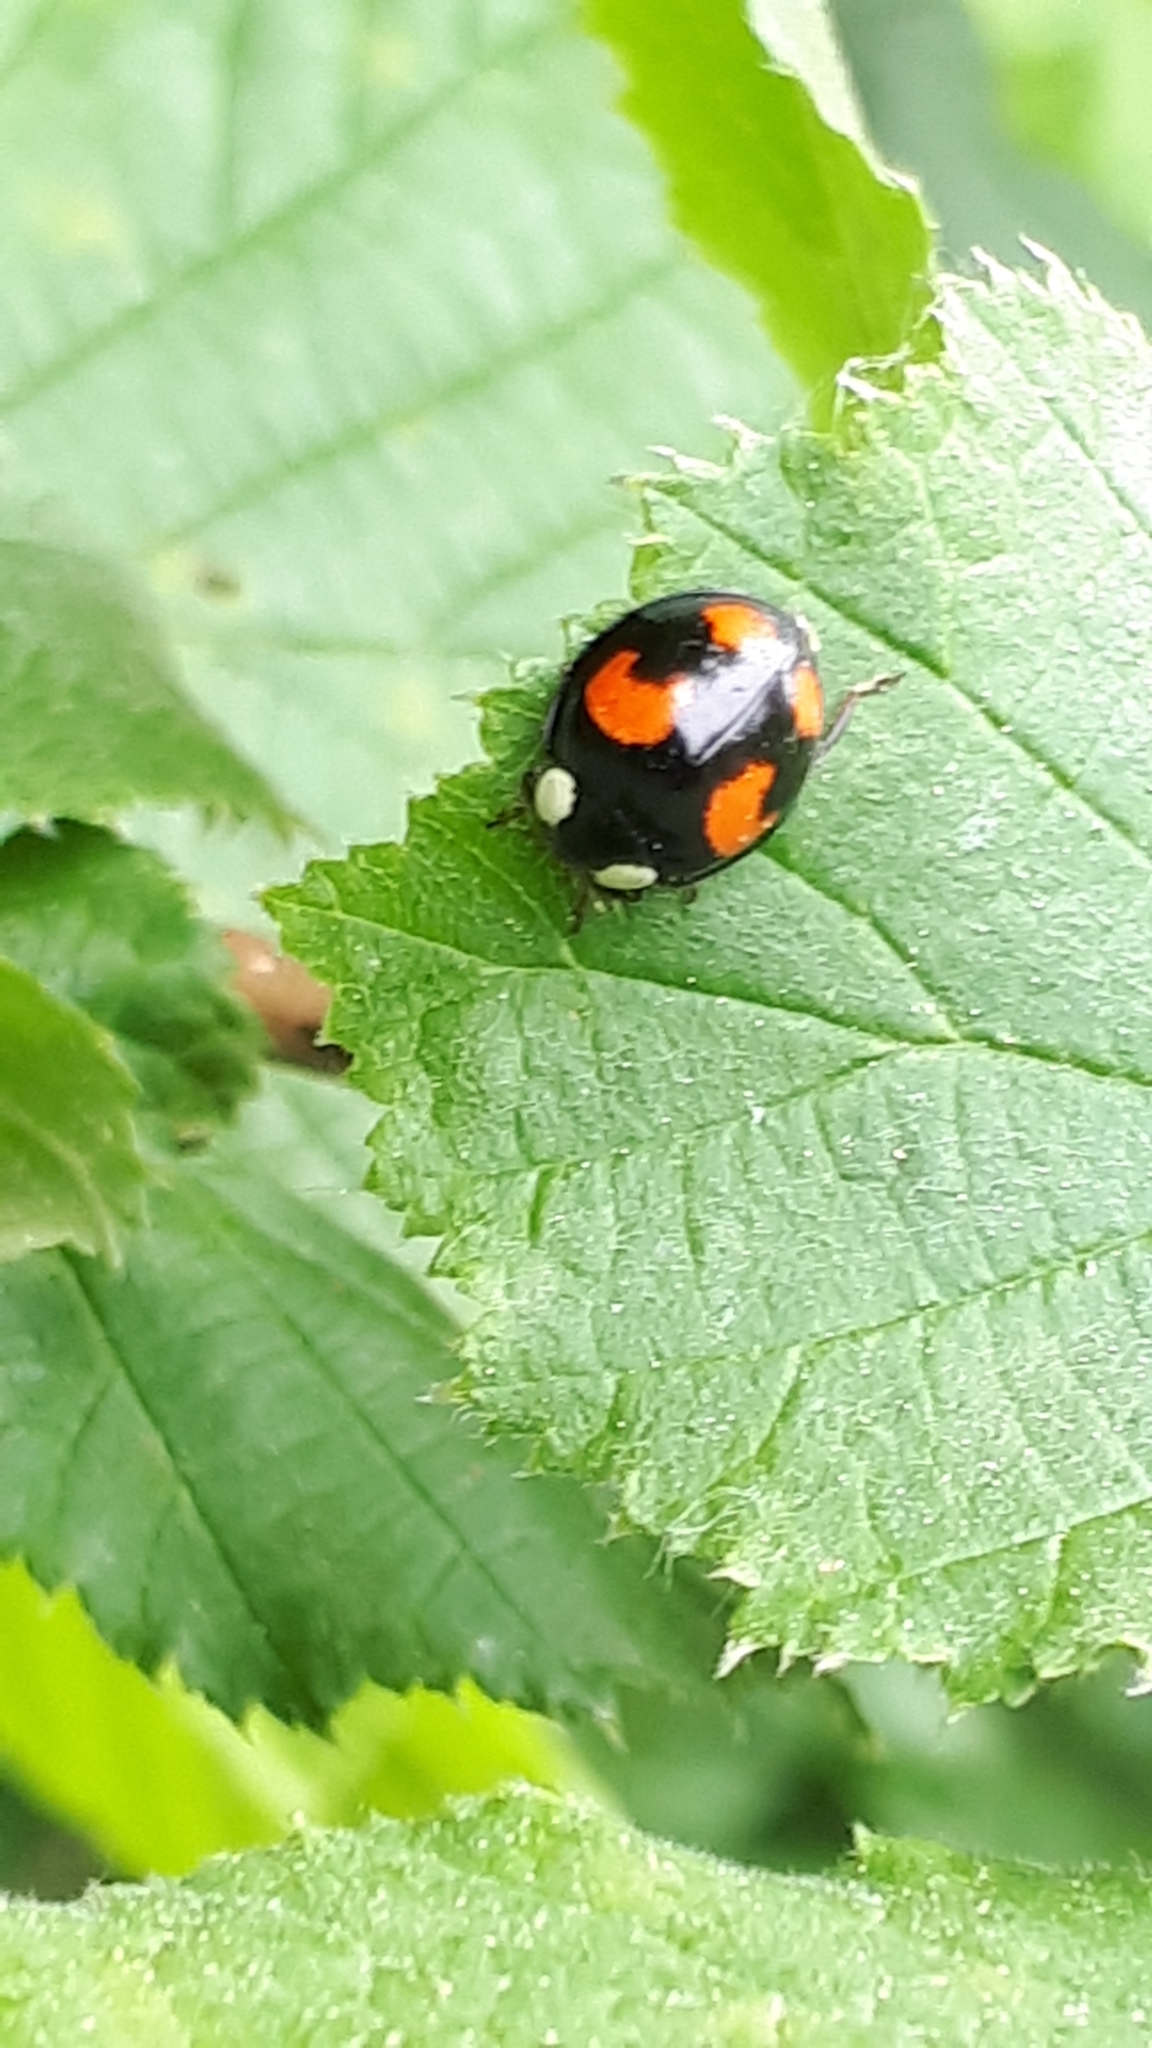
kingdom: Animalia
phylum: Arthropoda
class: Insecta
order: Coleoptera
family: Coccinellidae
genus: Harmonia
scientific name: Harmonia axyridis
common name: Harlequin ladybird
